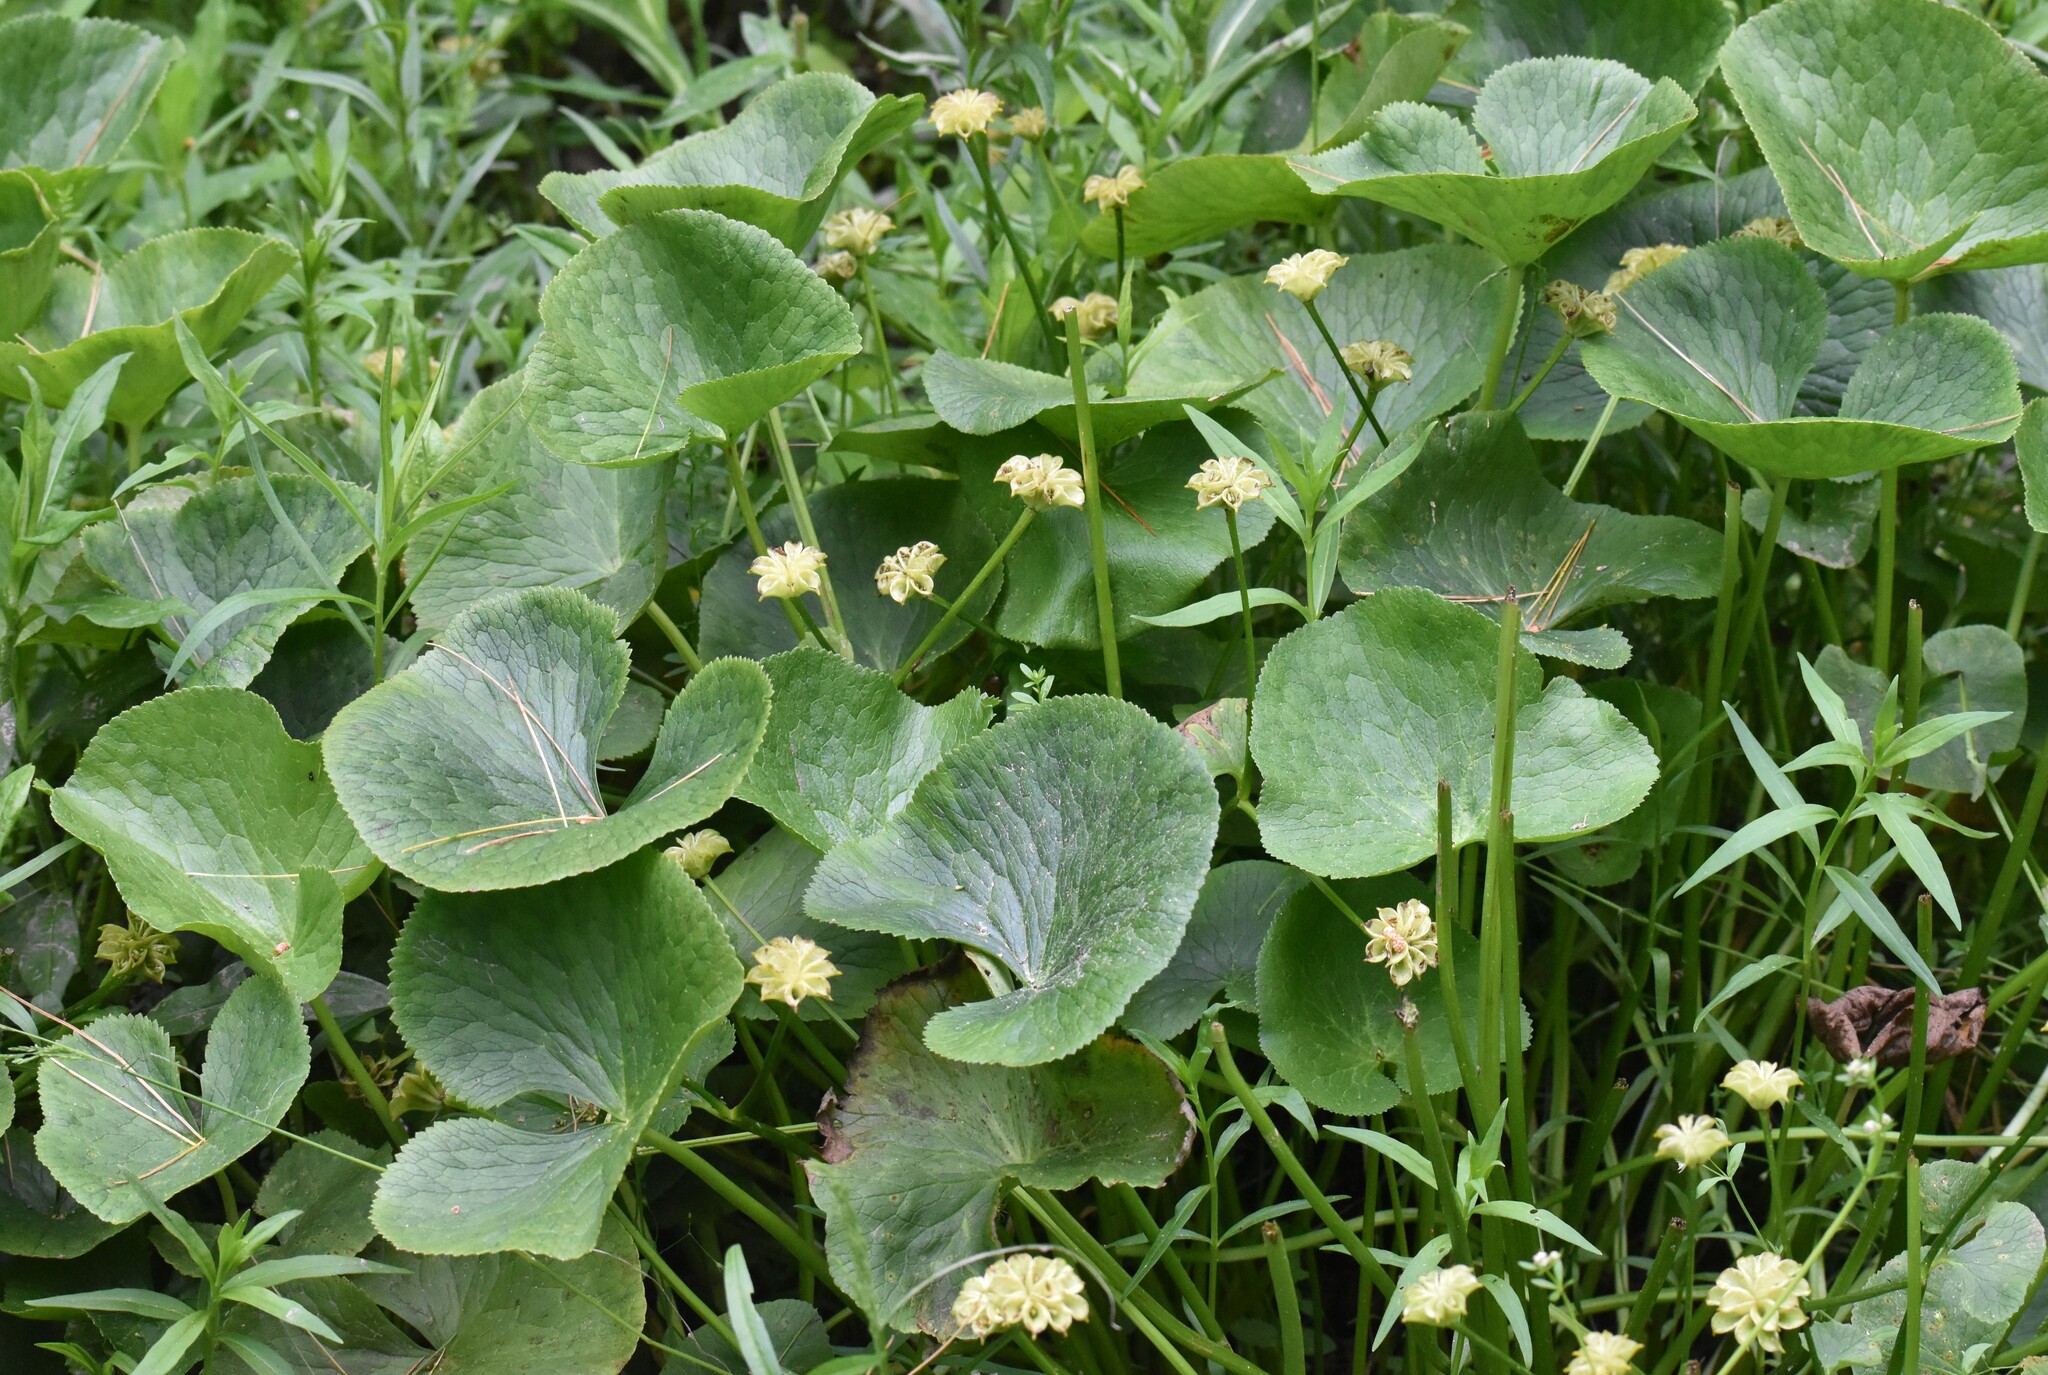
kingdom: Plantae
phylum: Tracheophyta
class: Magnoliopsida
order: Ranunculales
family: Ranunculaceae
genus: Caltha
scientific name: Caltha palustris
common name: Marsh marigold
